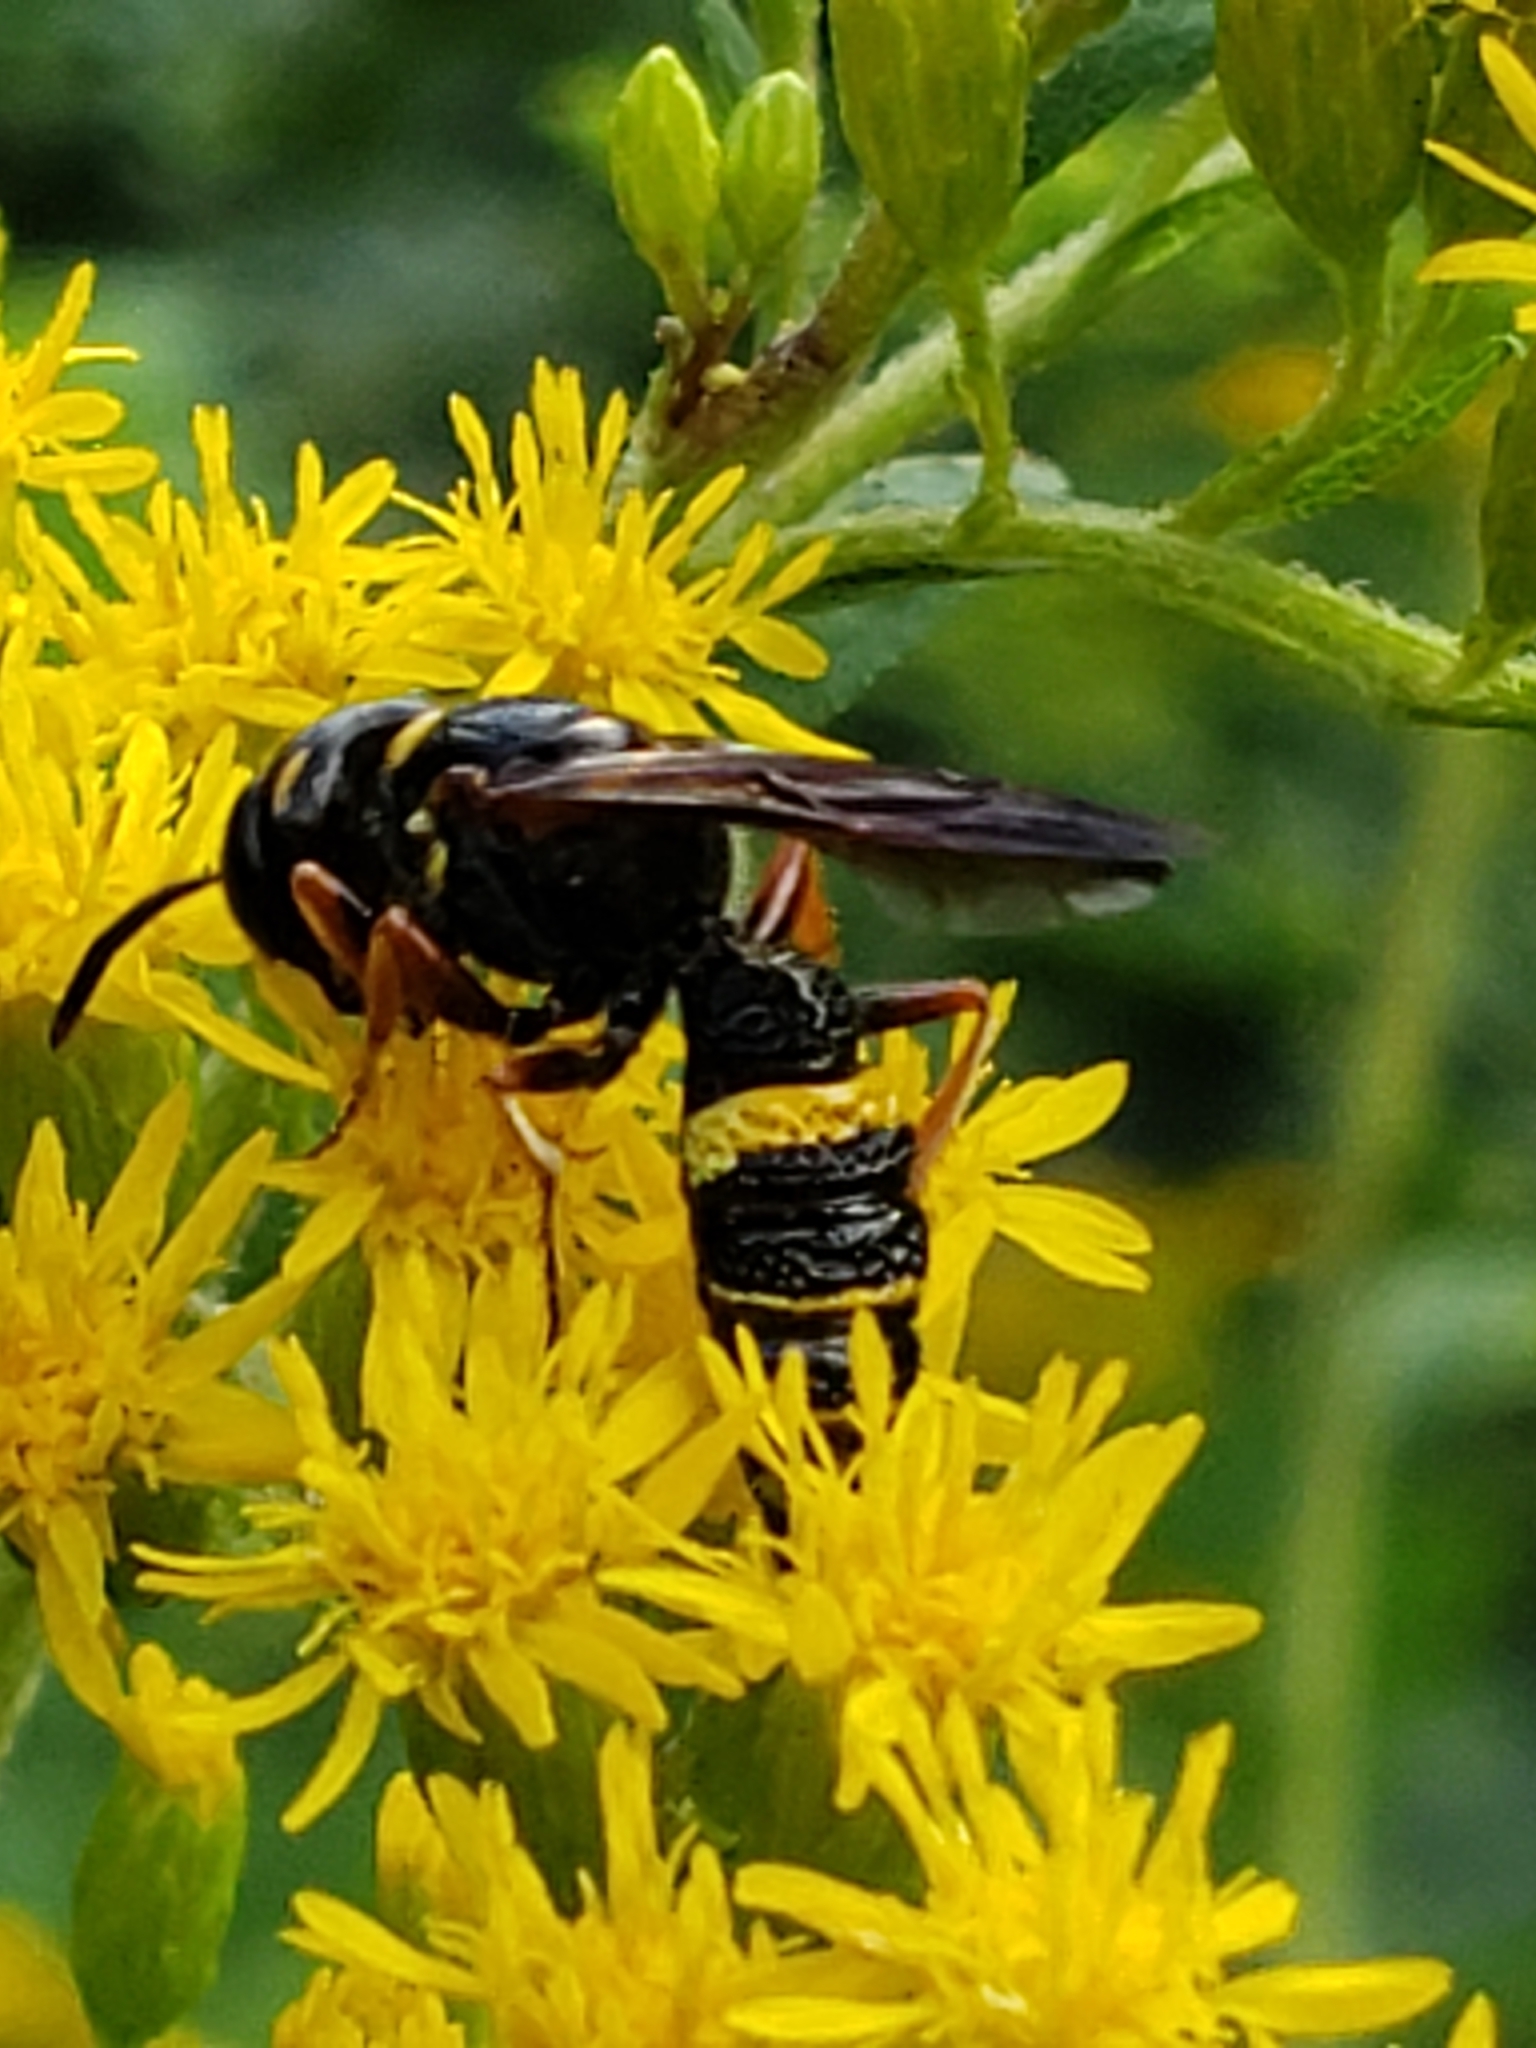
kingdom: Animalia
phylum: Arthropoda
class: Insecta
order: Hymenoptera
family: Crabronidae
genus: Philanthus
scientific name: Philanthus gibbosus
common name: Humped beewolf
